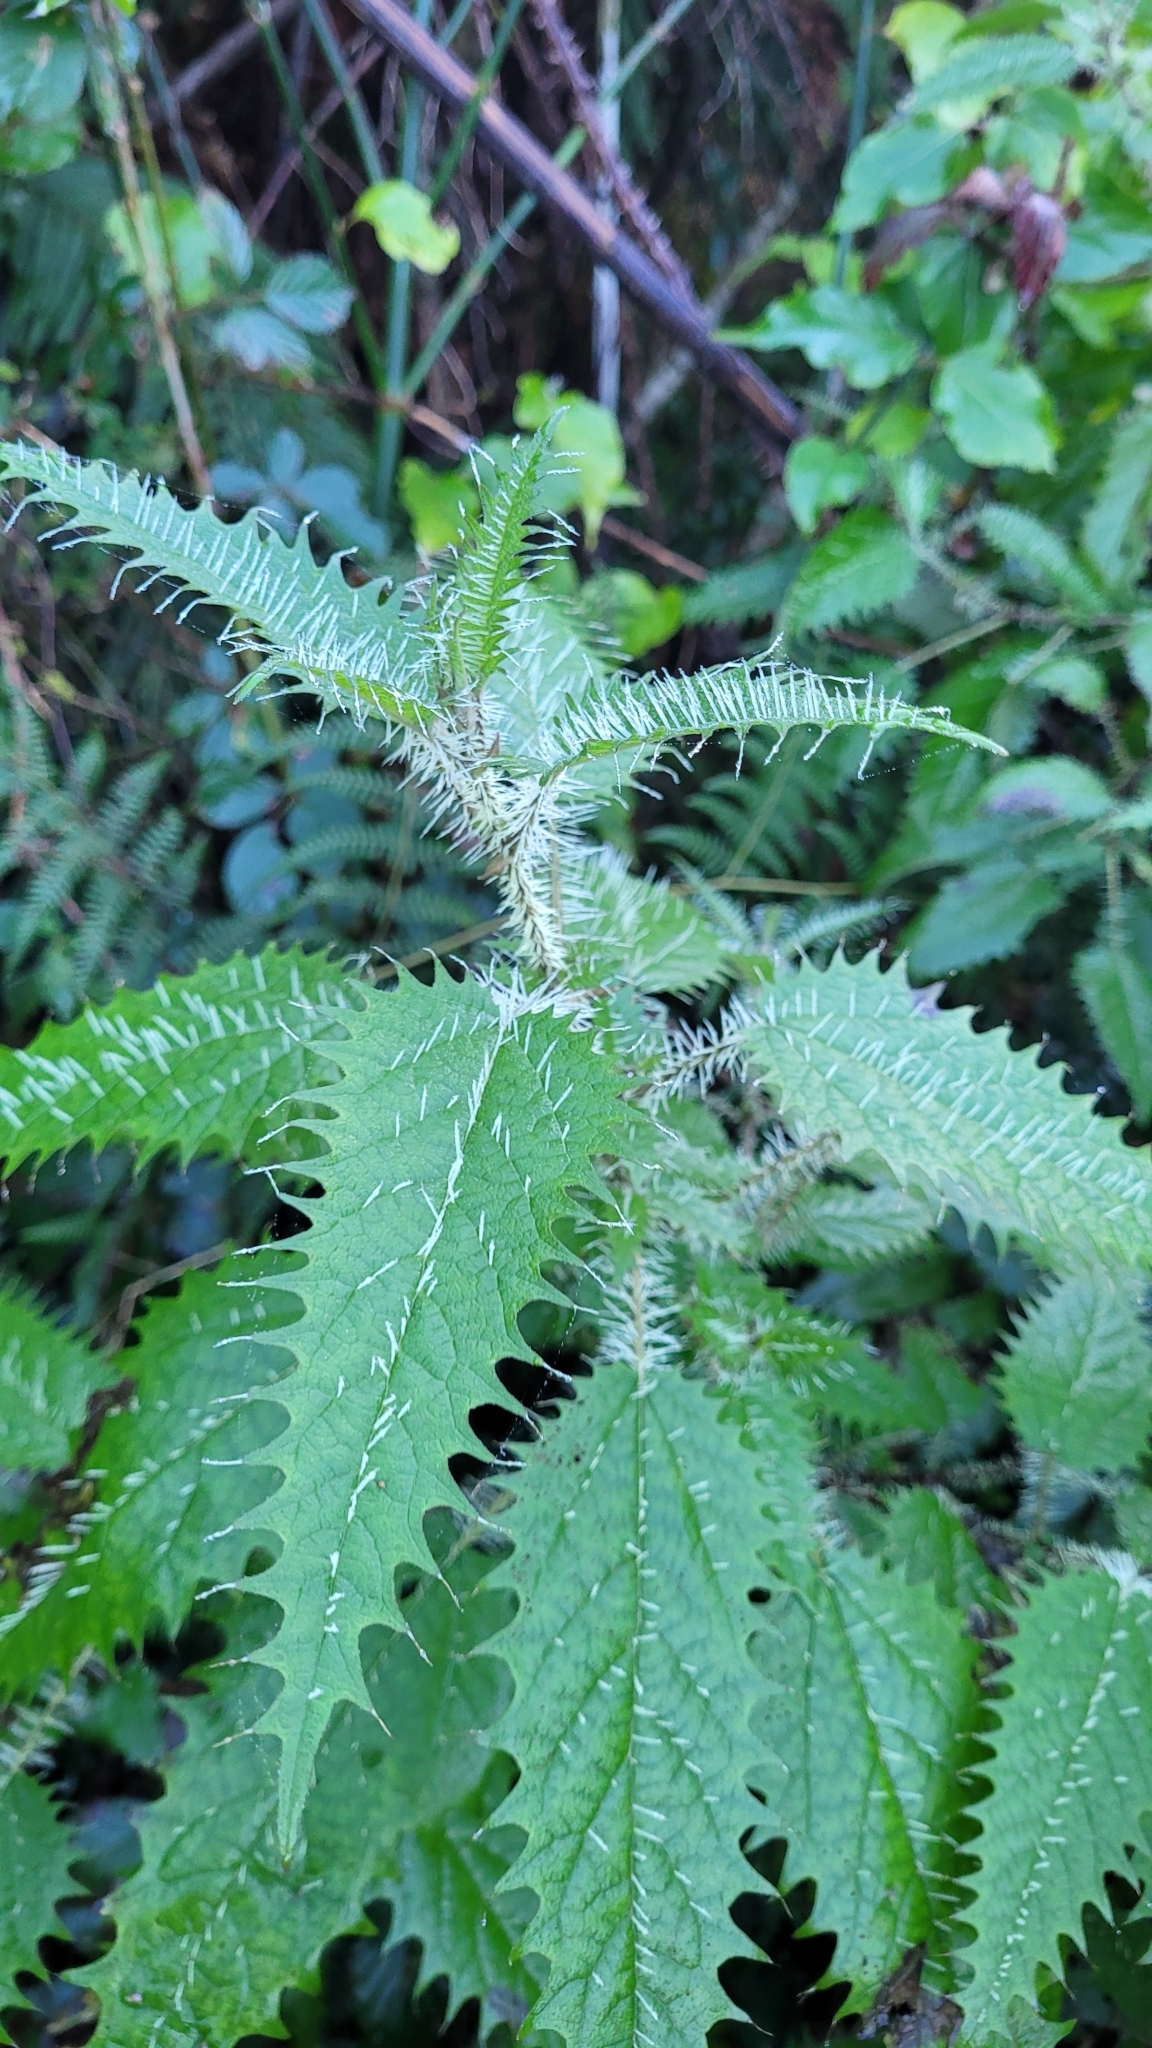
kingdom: Plantae
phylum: Tracheophyta
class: Magnoliopsida
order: Rosales
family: Urticaceae
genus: Urtica
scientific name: Urtica ferox
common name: Tree nettle
